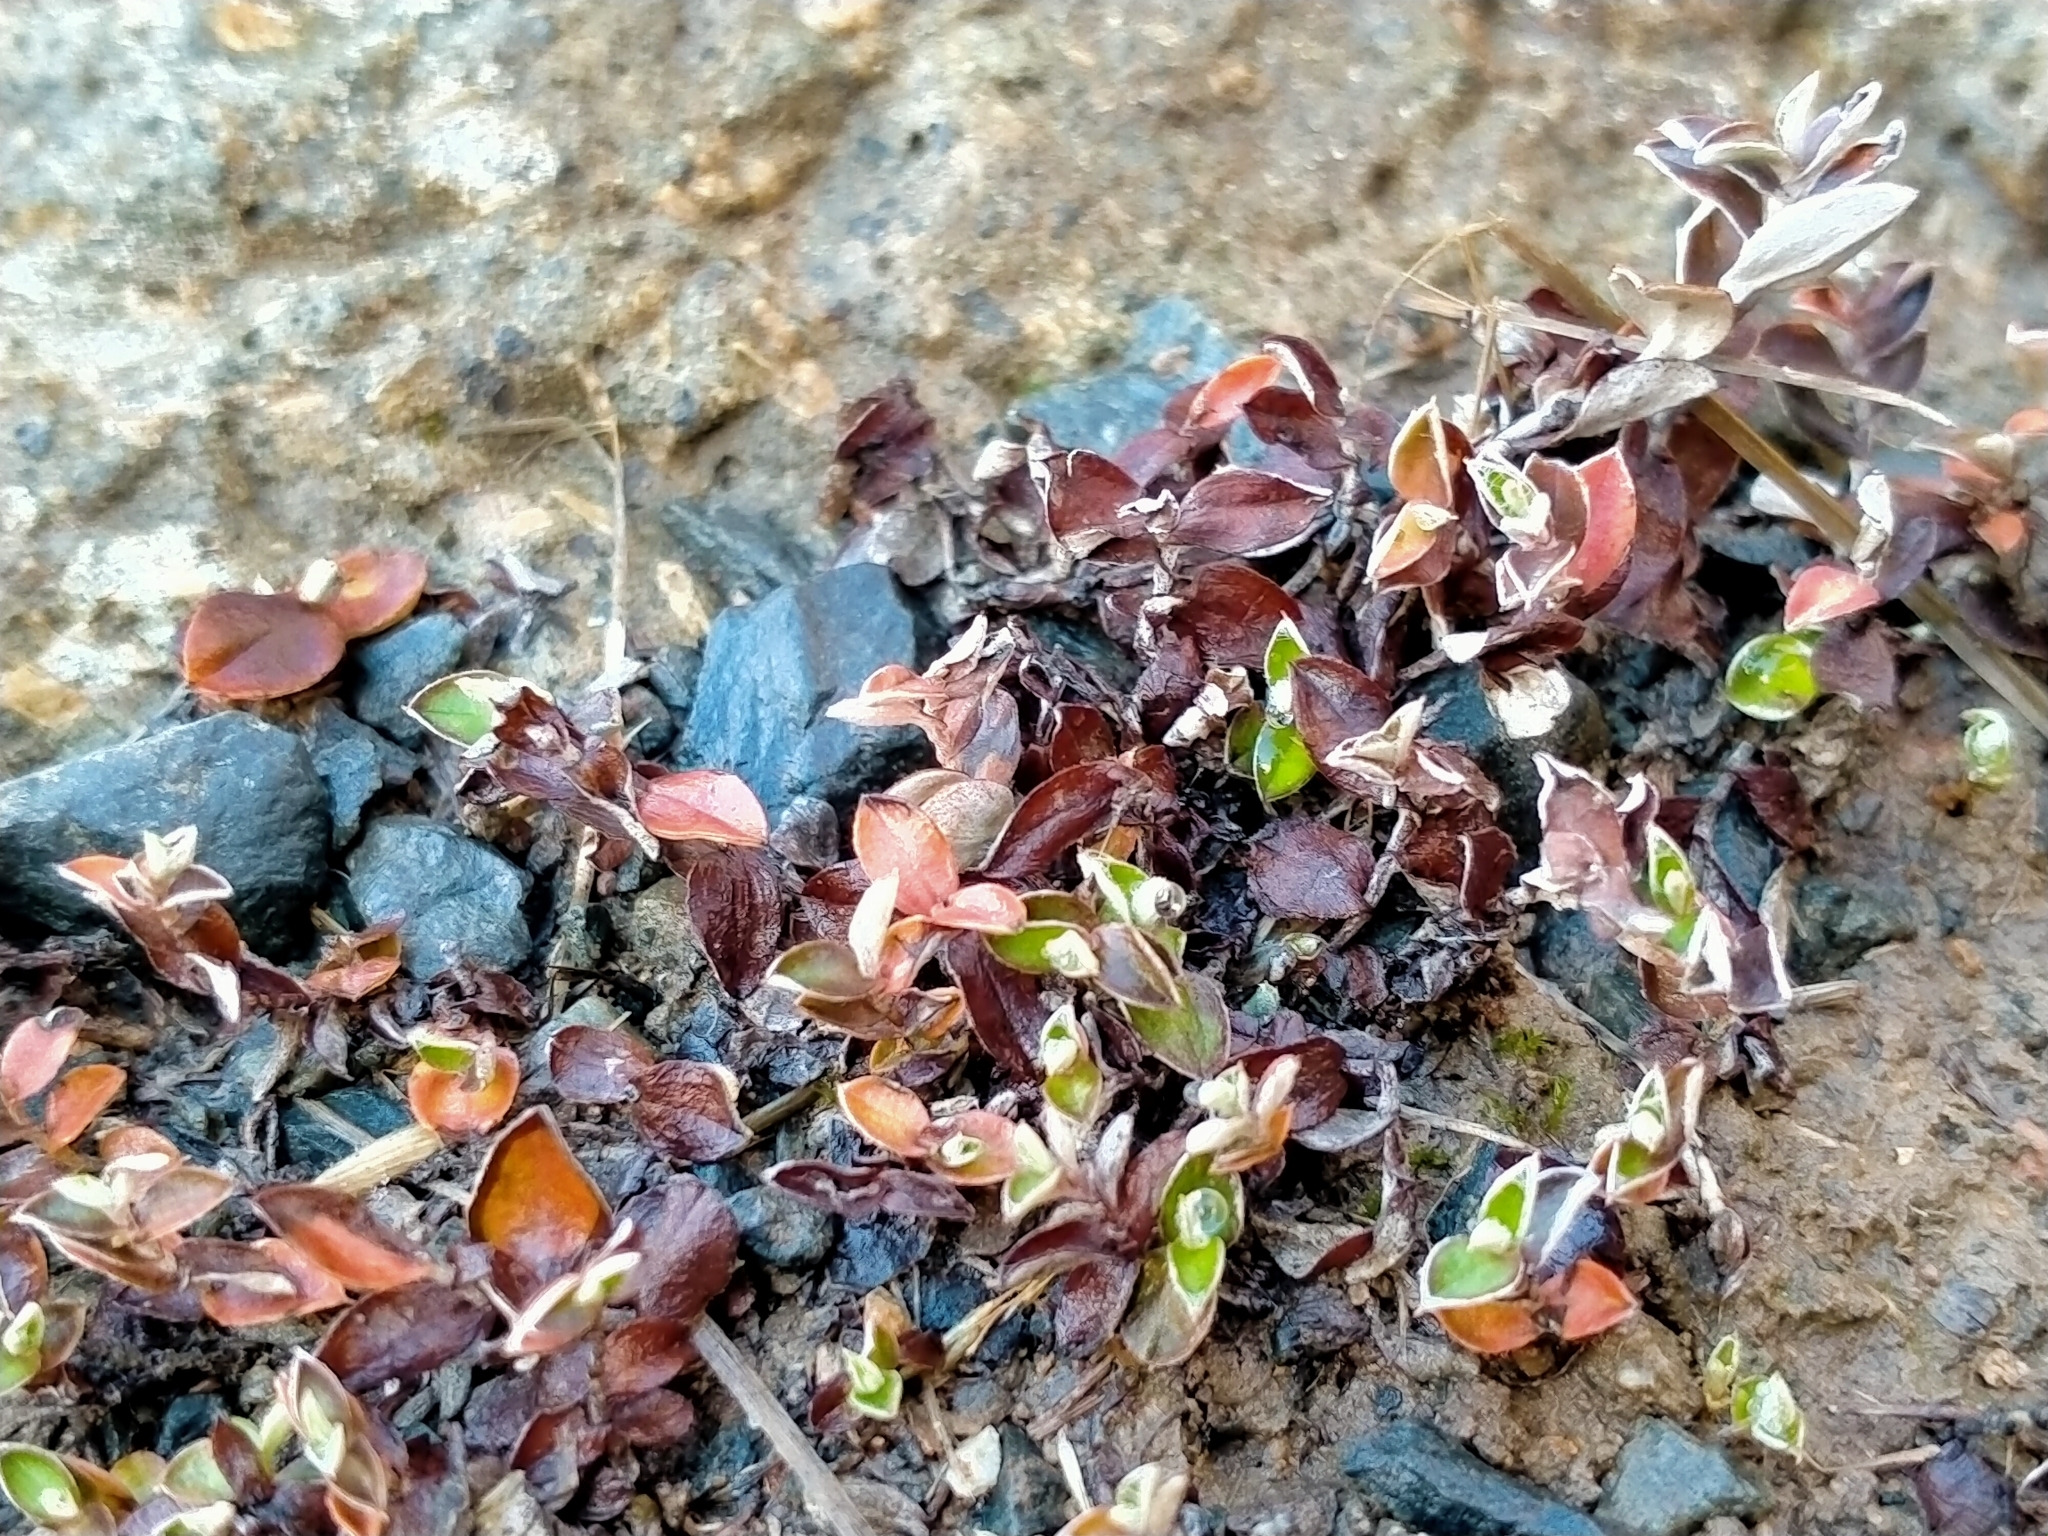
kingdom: Plantae
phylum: Tracheophyta
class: Magnoliopsida
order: Asterales
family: Asteraceae
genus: Helichrysum
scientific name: Helichrysum filicaule
